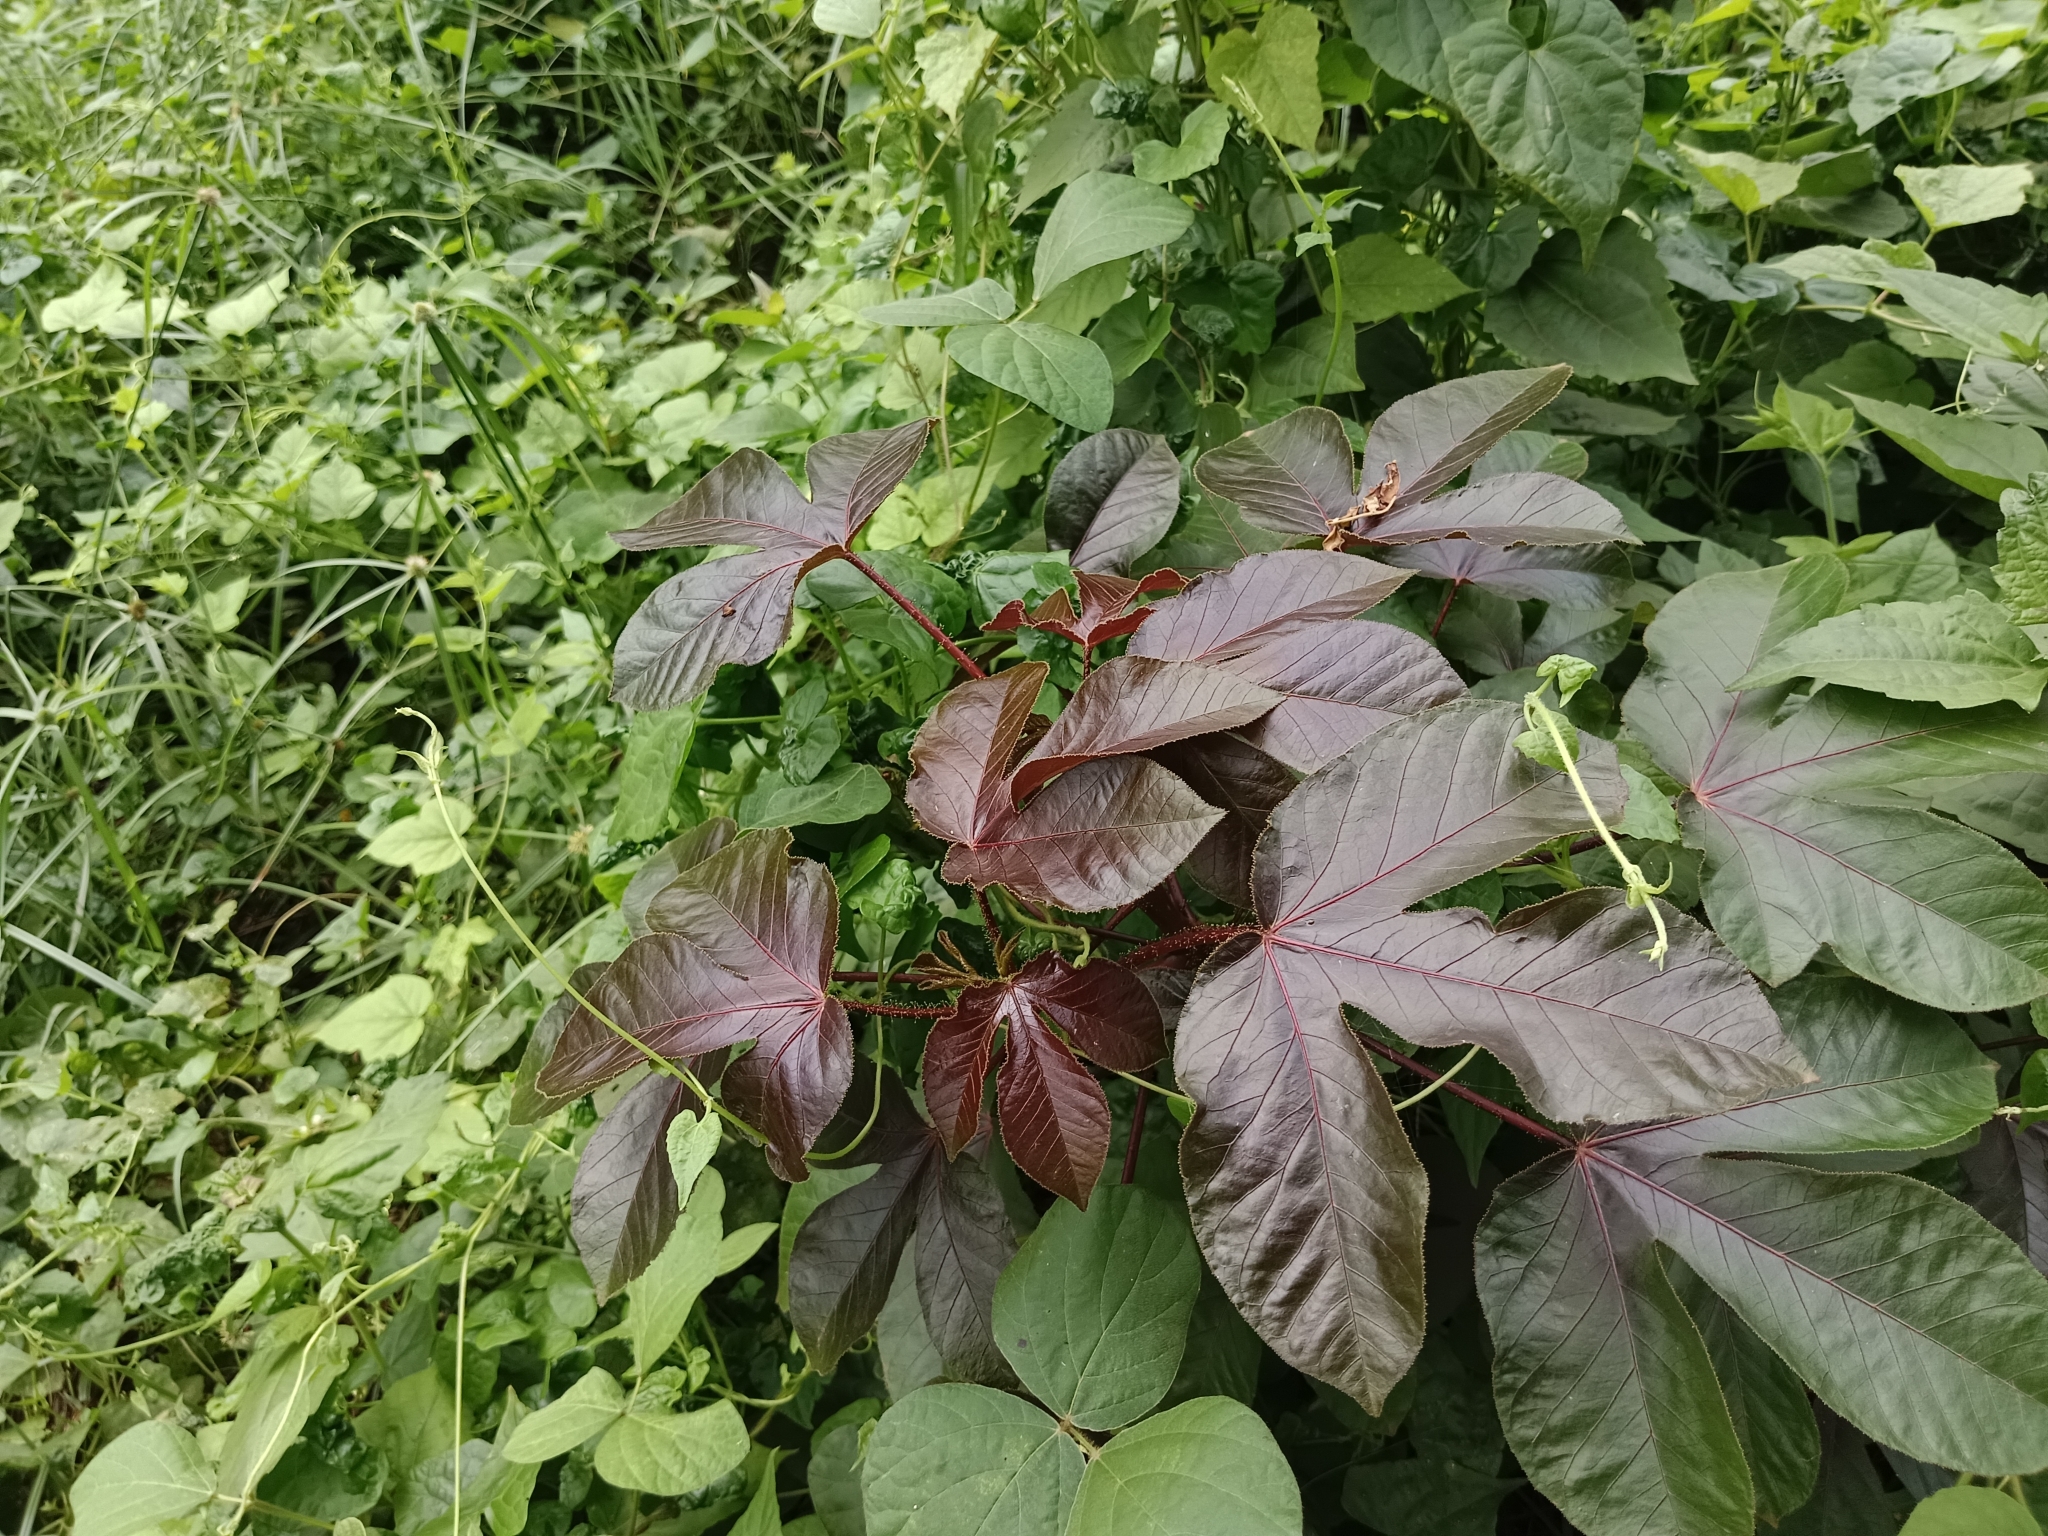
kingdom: Plantae
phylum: Tracheophyta
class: Magnoliopsida
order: Malpighiales
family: Euphorbiaceae
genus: Jatropha
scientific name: Jatropha gossypiifolia
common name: Bellyache bush
